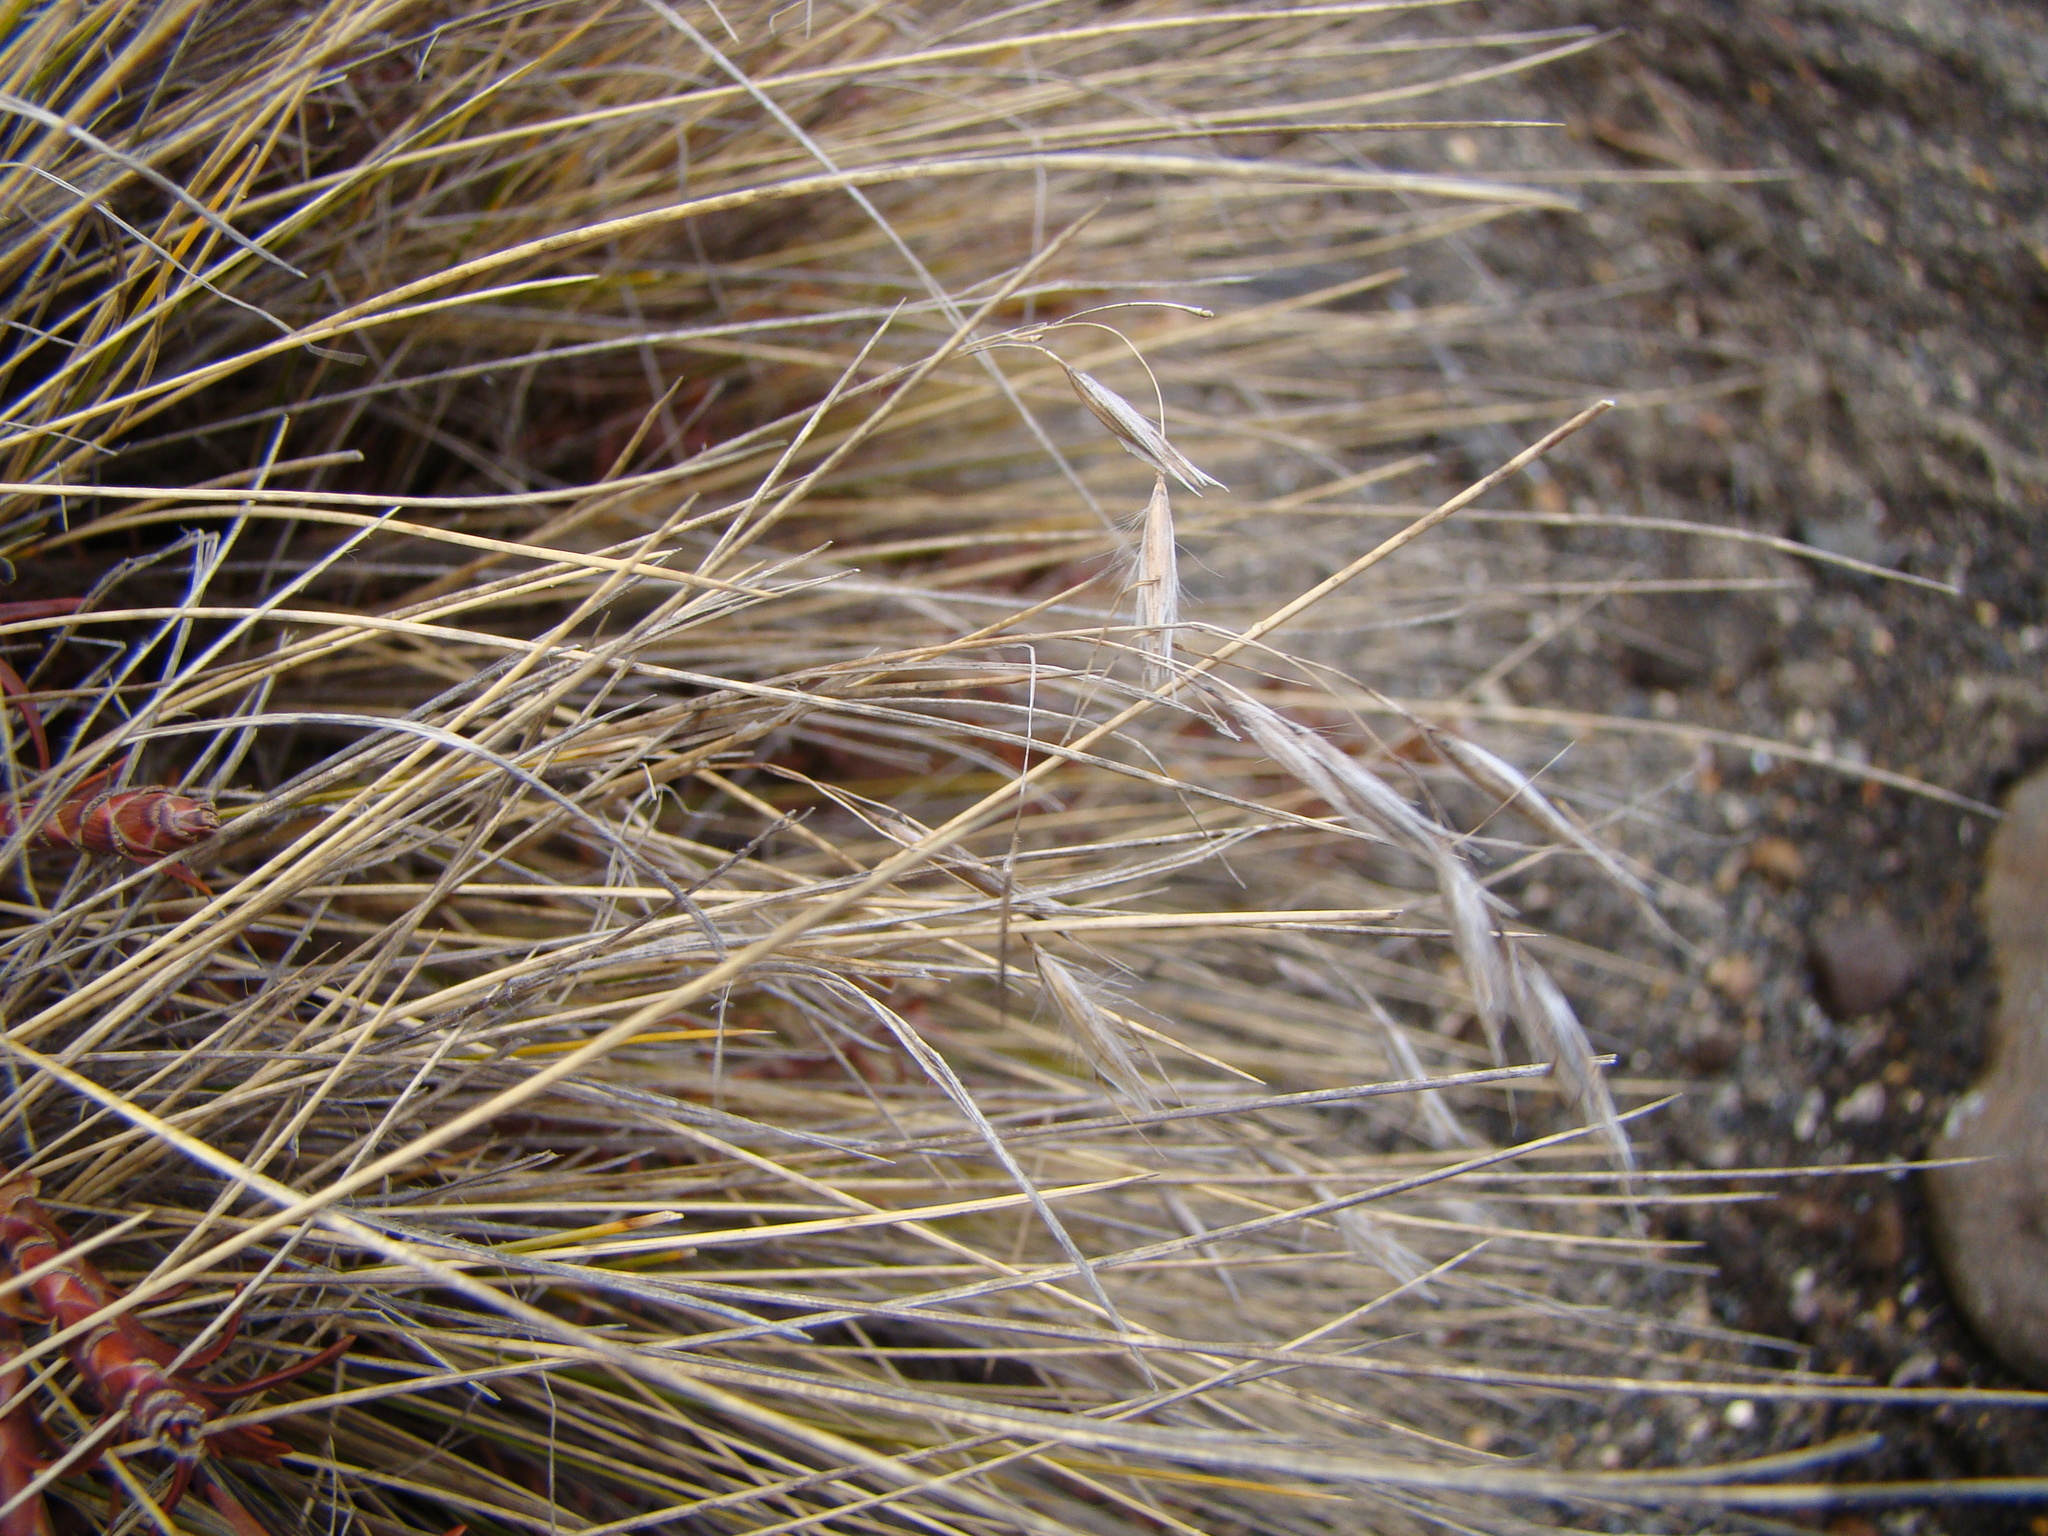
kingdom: Plantae
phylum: Tracheophyta
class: Liliopsida
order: Poales
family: Poaceae
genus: Rytidosperma
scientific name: Rytidosperma setifolium
